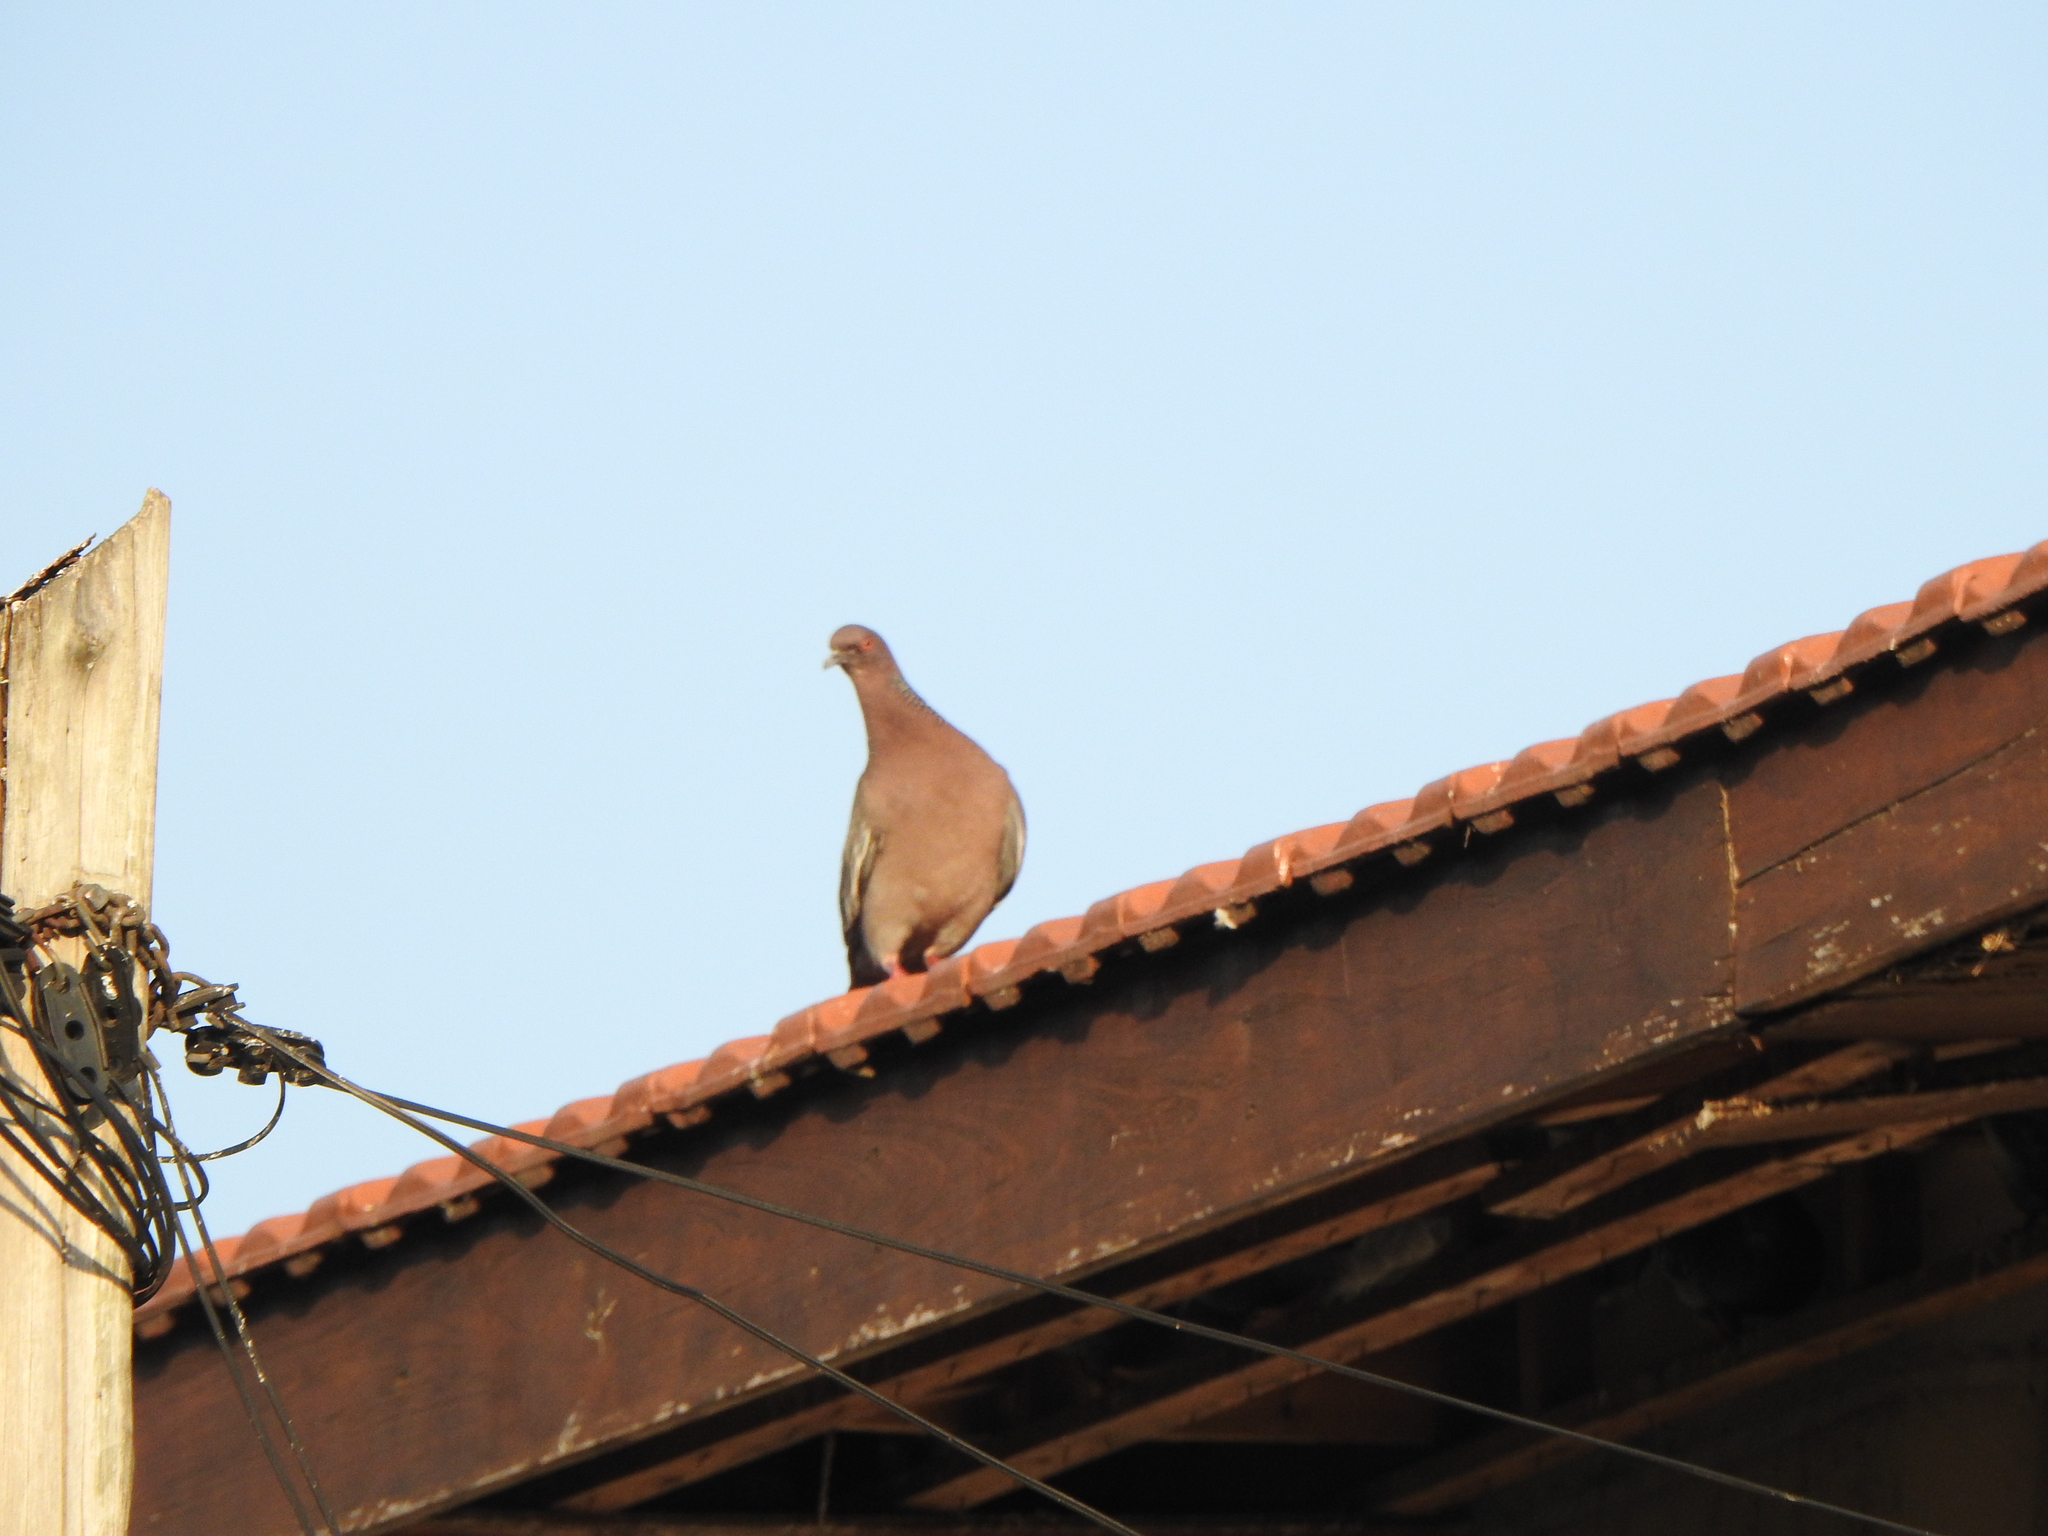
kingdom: Animalia
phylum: Chordata
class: Aves
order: Columbiformes
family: Columbidae
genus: Patagioenas
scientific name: Patagioenas picazuro
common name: Picazuro pigeon
